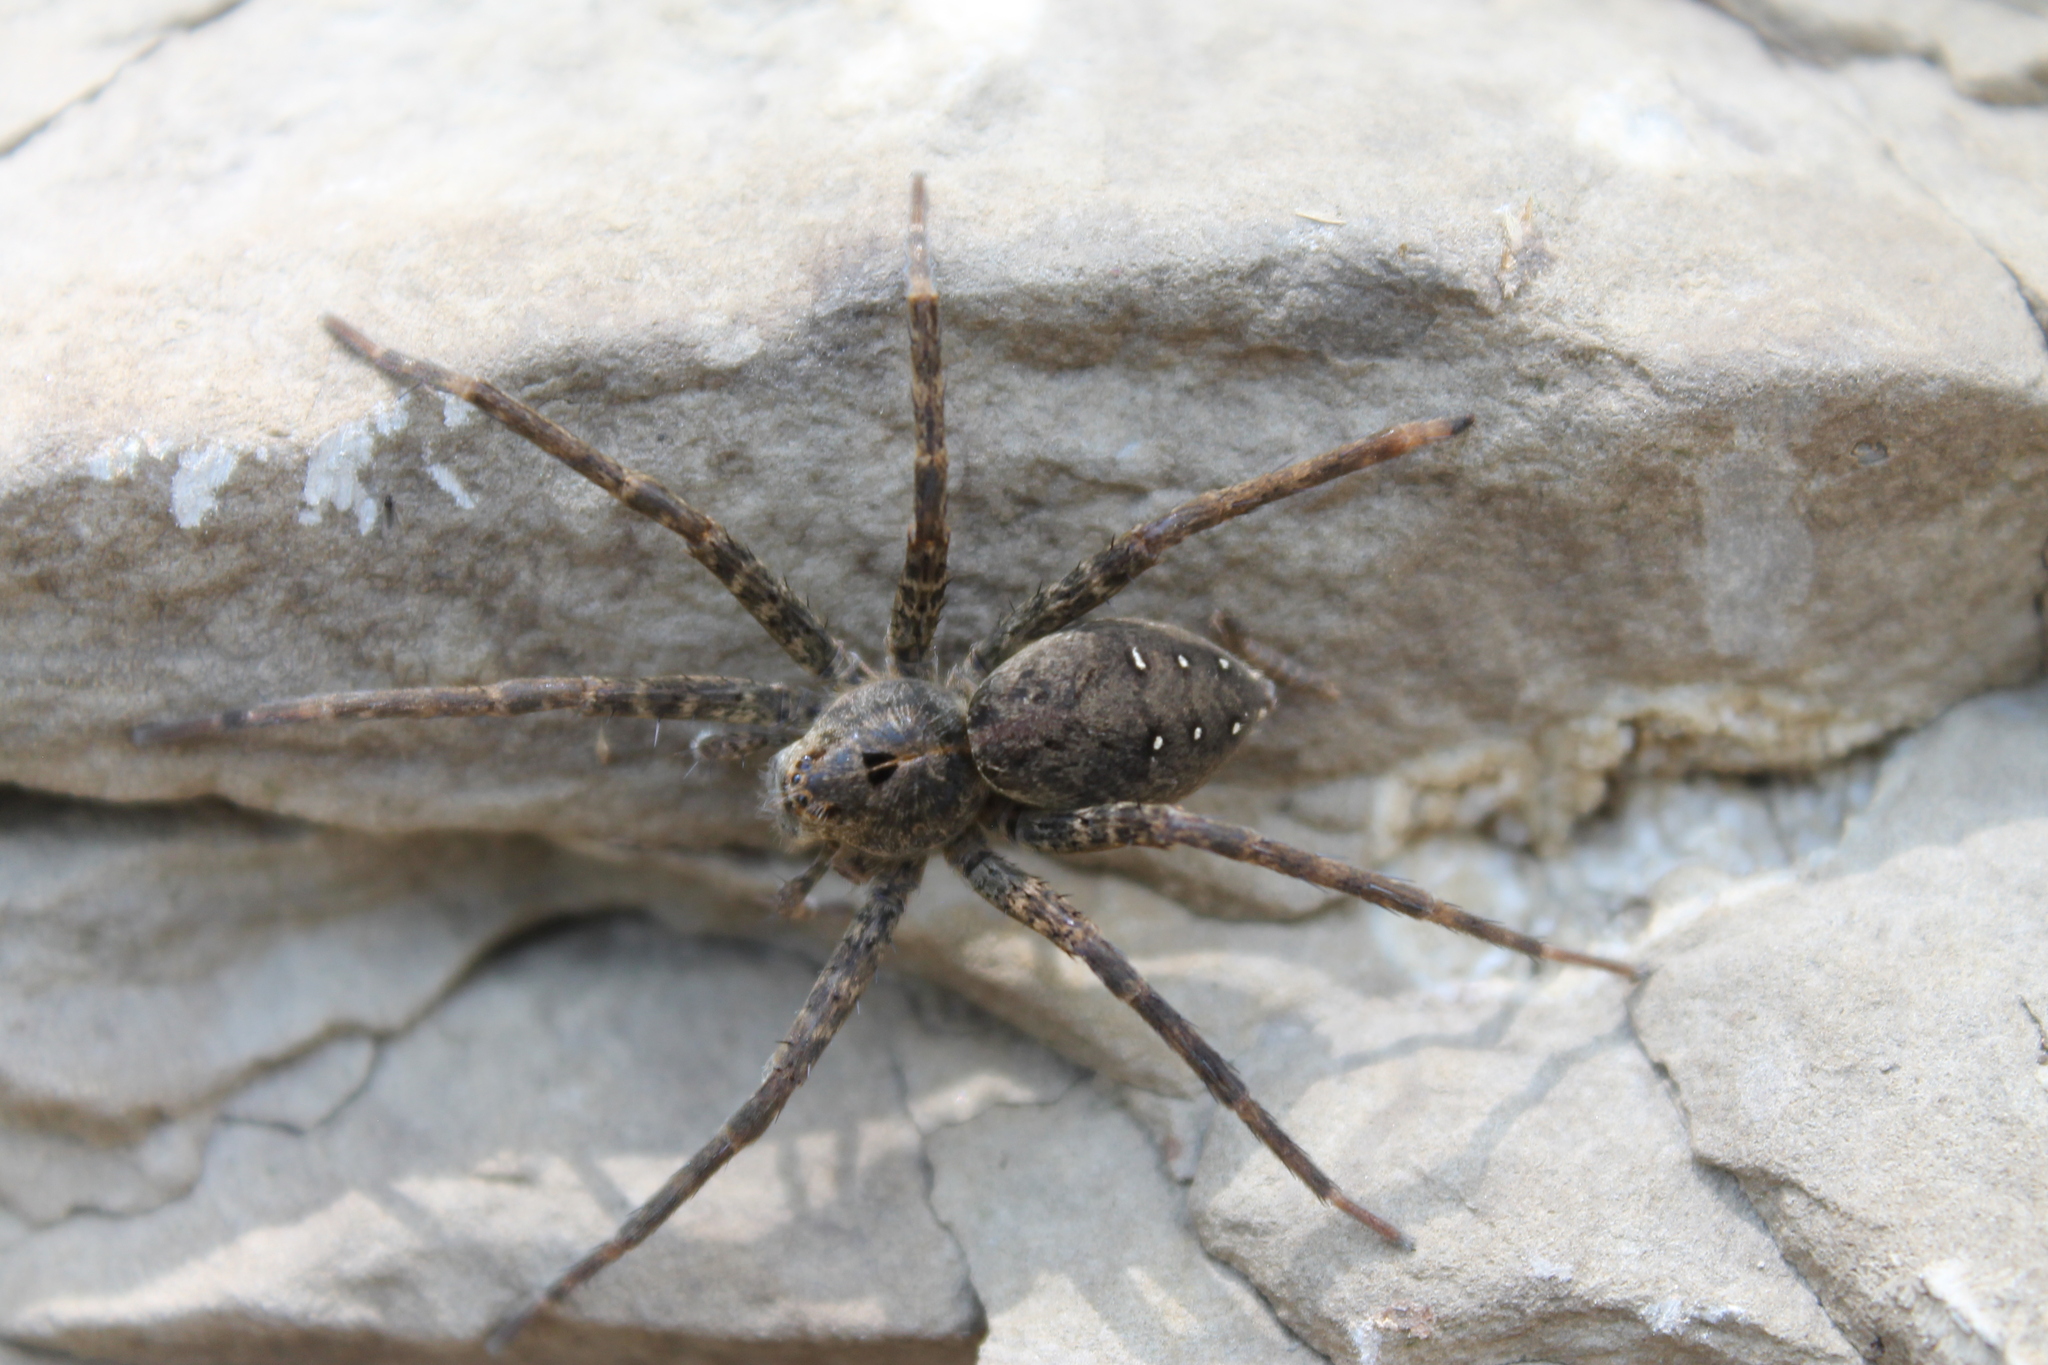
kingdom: Animalia
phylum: Arthropoda
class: Arachnida
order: Araneae
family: Pisauridae
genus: Dolomedes
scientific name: Dolomedes vittatus
